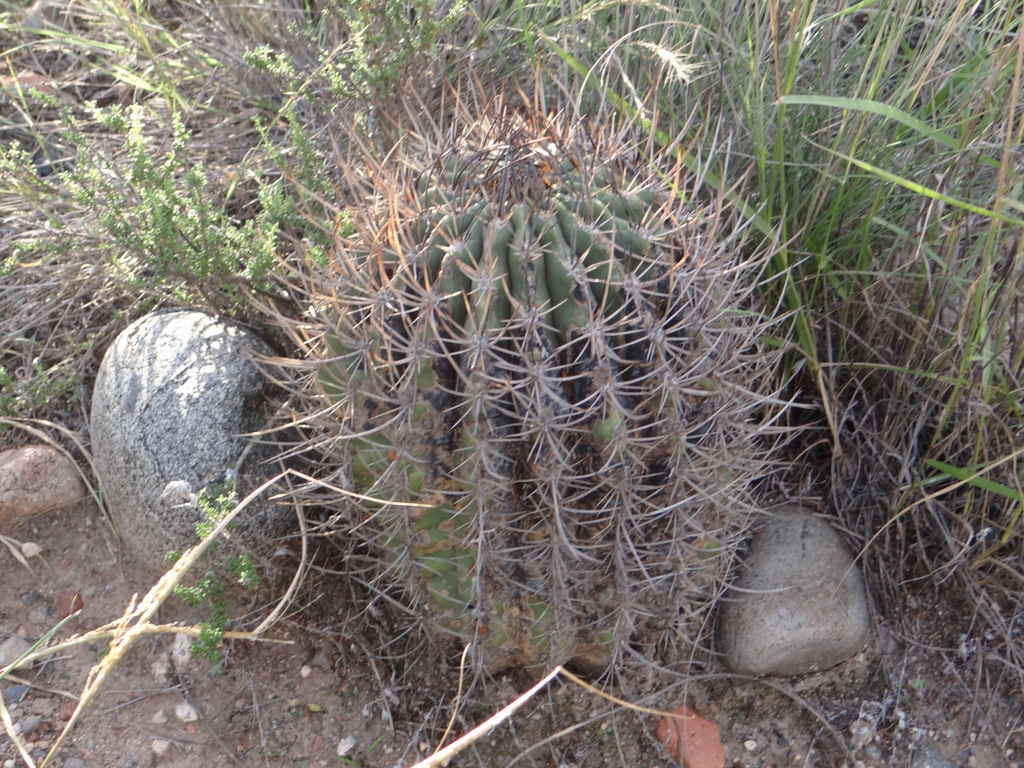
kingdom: Plantae
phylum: Tracheophyta
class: Magnoliopsida
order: Caryophyllales
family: Cactaceae
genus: Acanthocalycium
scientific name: Acanthocalycium leucanthum
